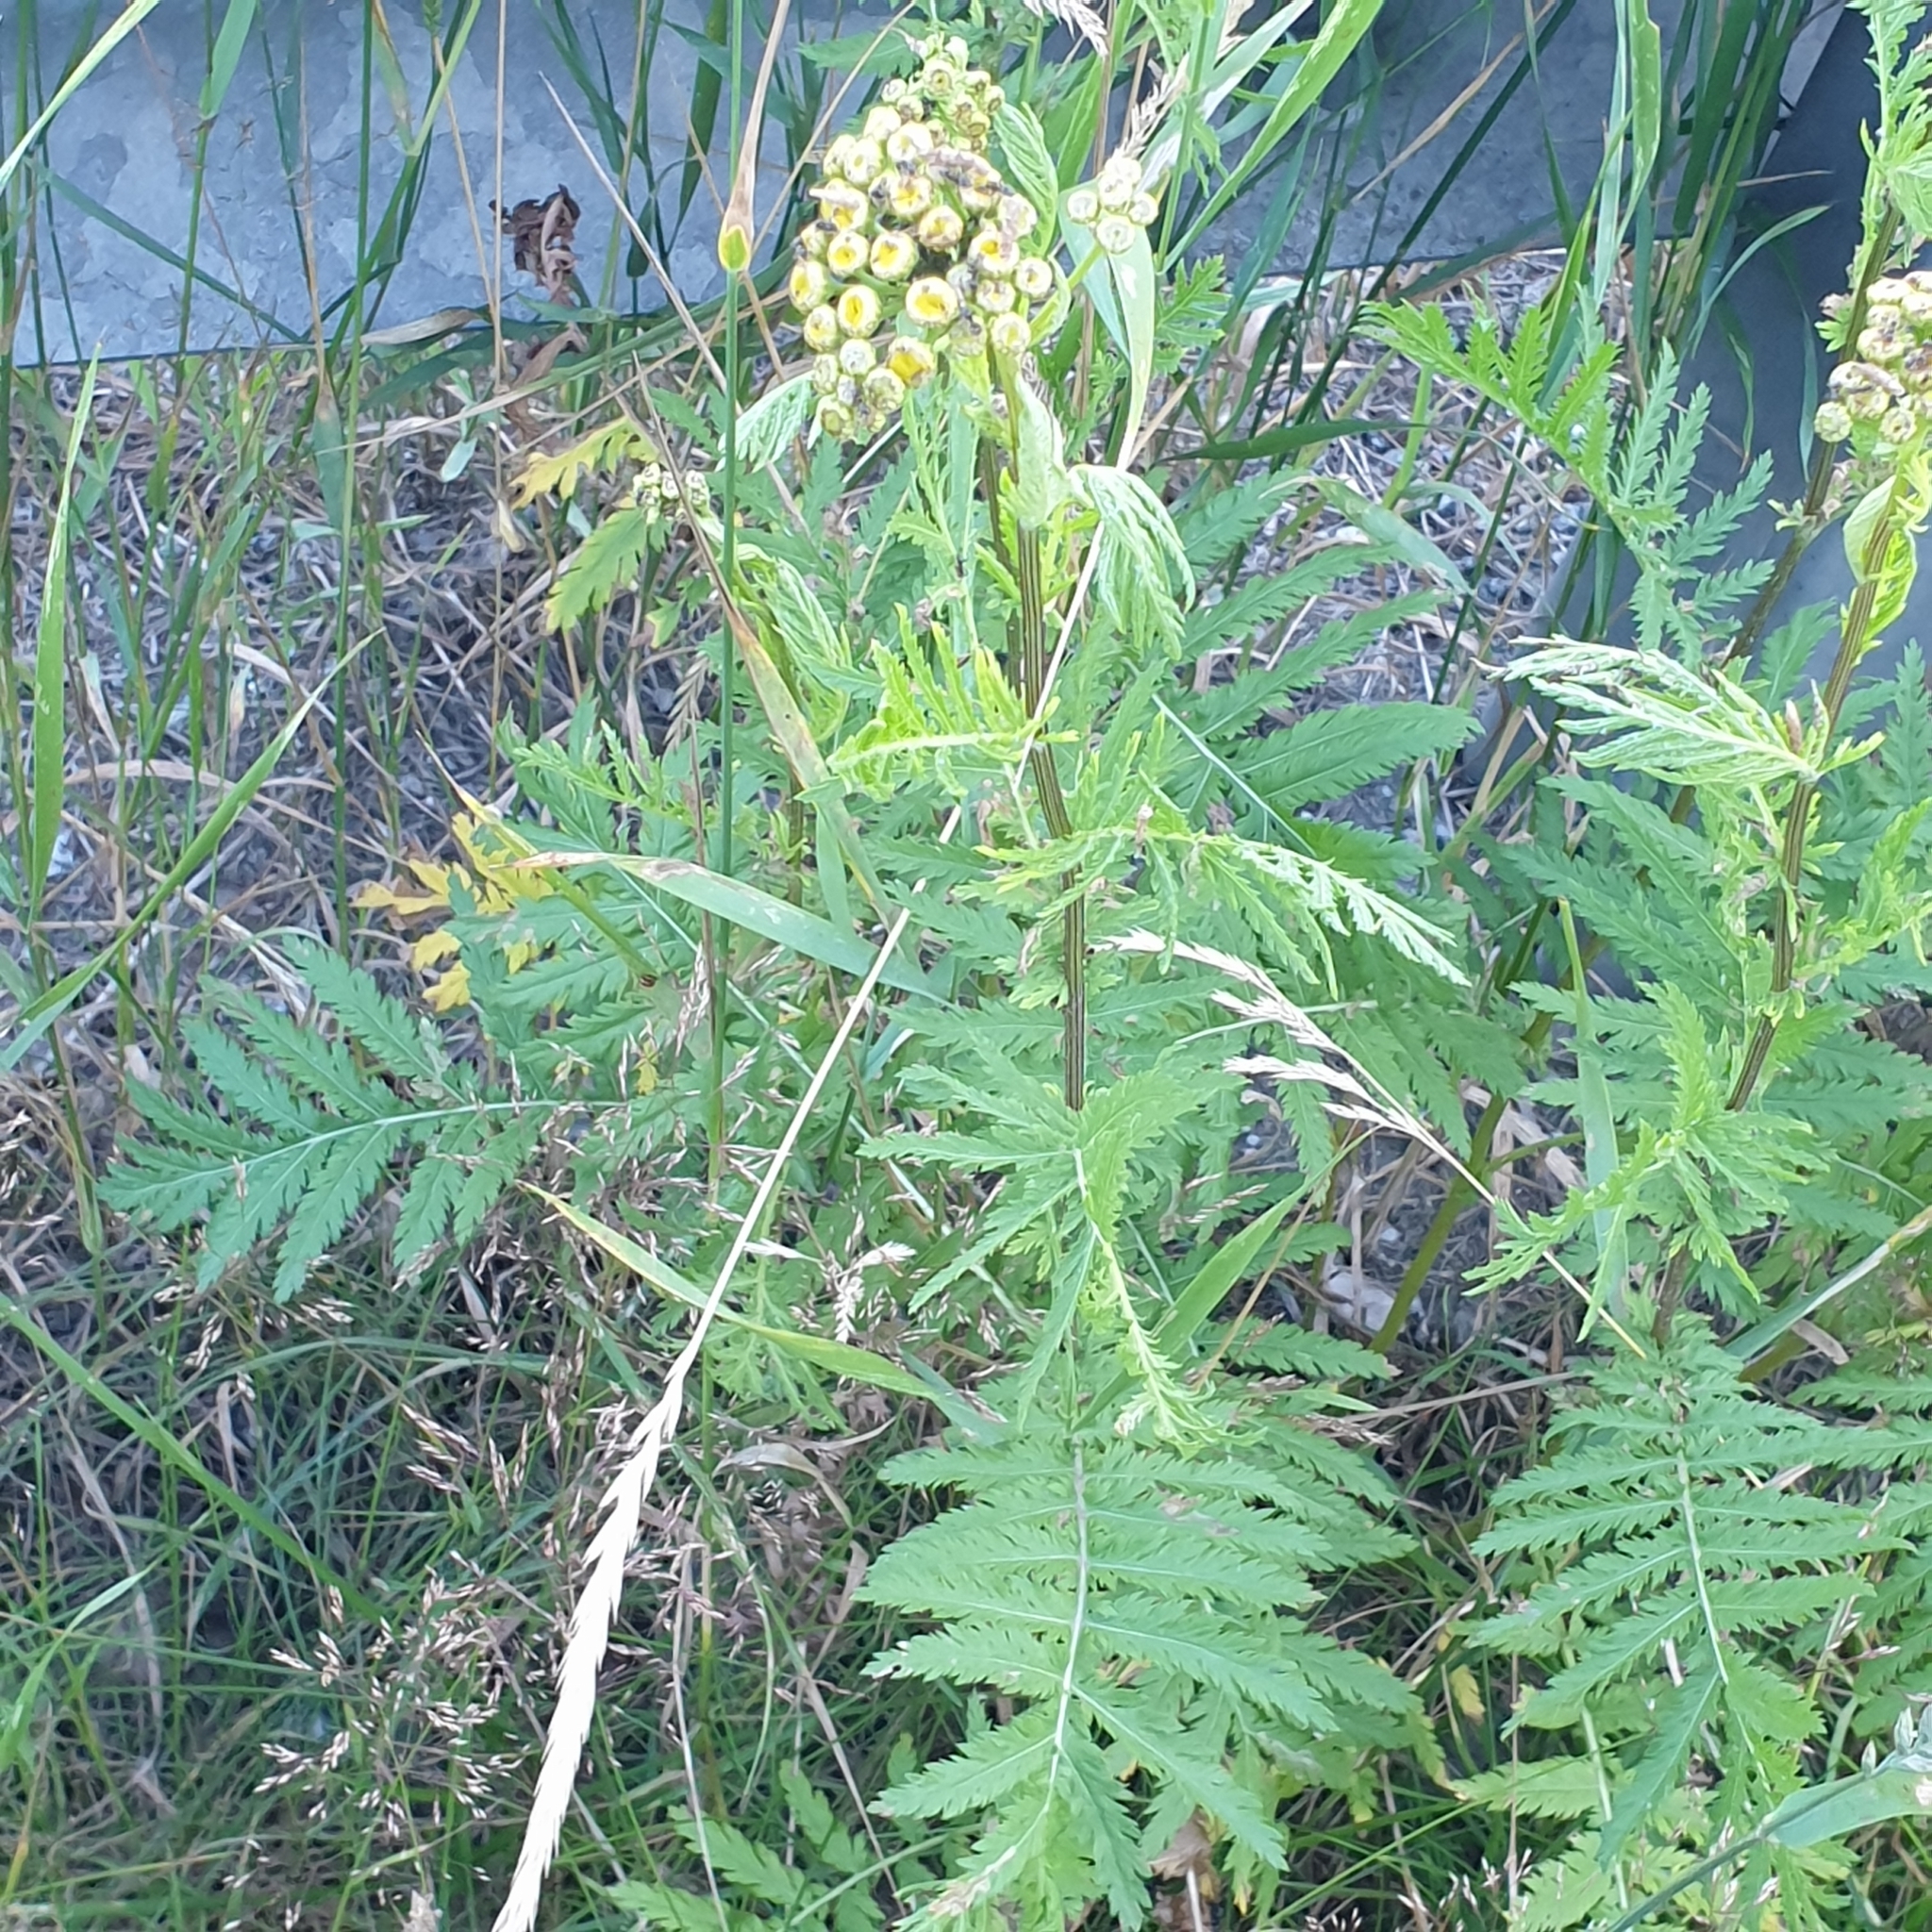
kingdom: Plantae
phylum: Tracheophyta
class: Magnoliopsida
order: Asterales
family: Asteraceae
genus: Tanacetum
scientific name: Tanacetum vulgare
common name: Common tansy
